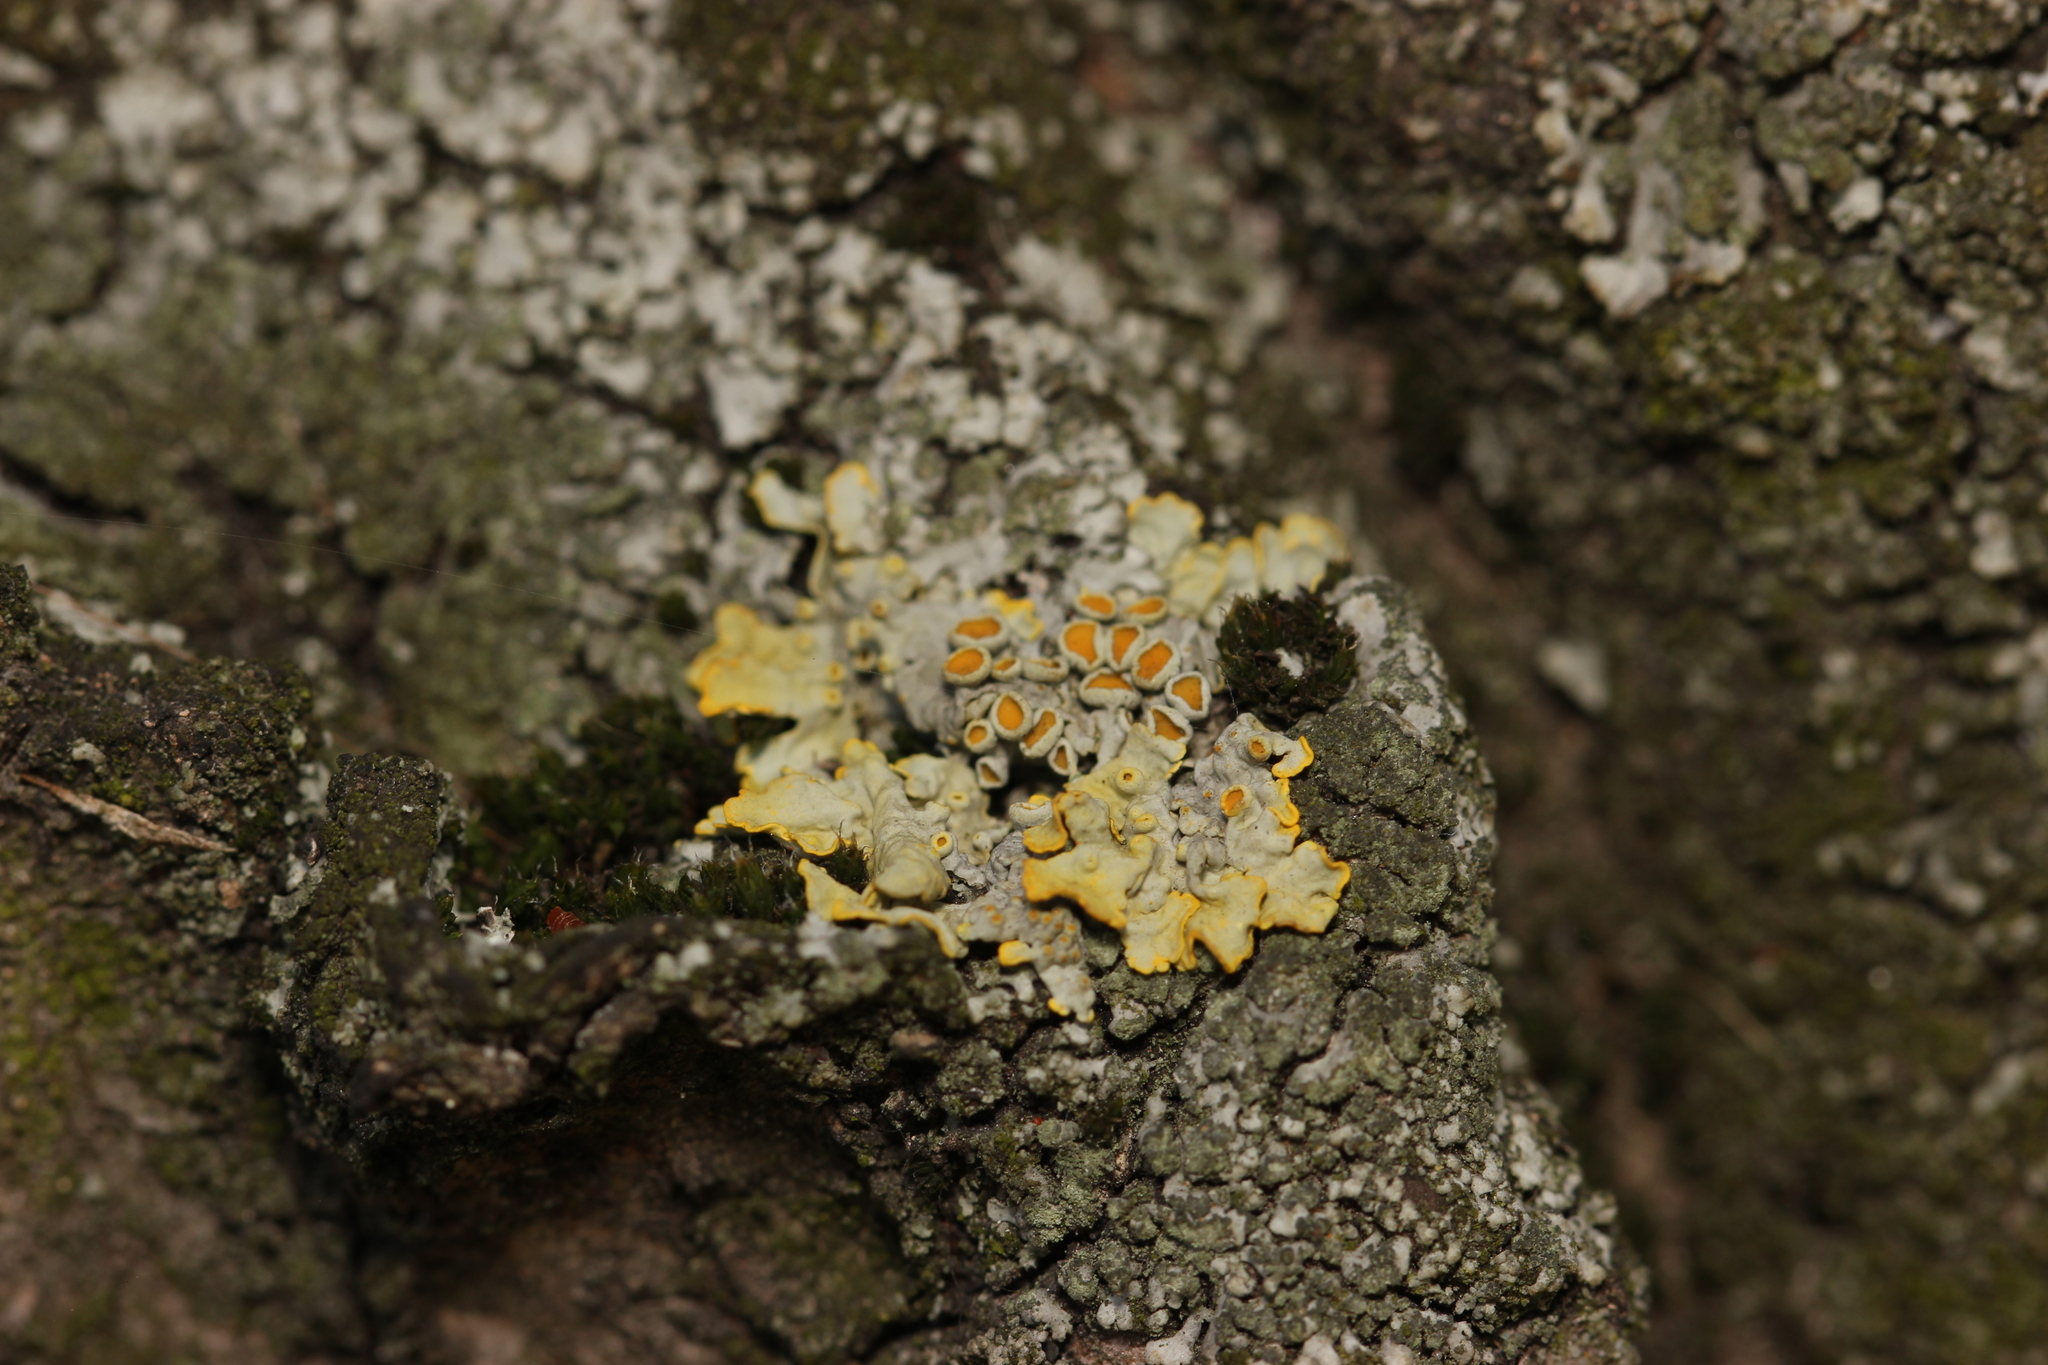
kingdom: Fungi
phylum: Ascomycota
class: Lecanoromycetes
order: Teloschistales
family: Teloschistaceae
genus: Xanthoria
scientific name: Xanthoria parietina
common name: Common orange lichen
